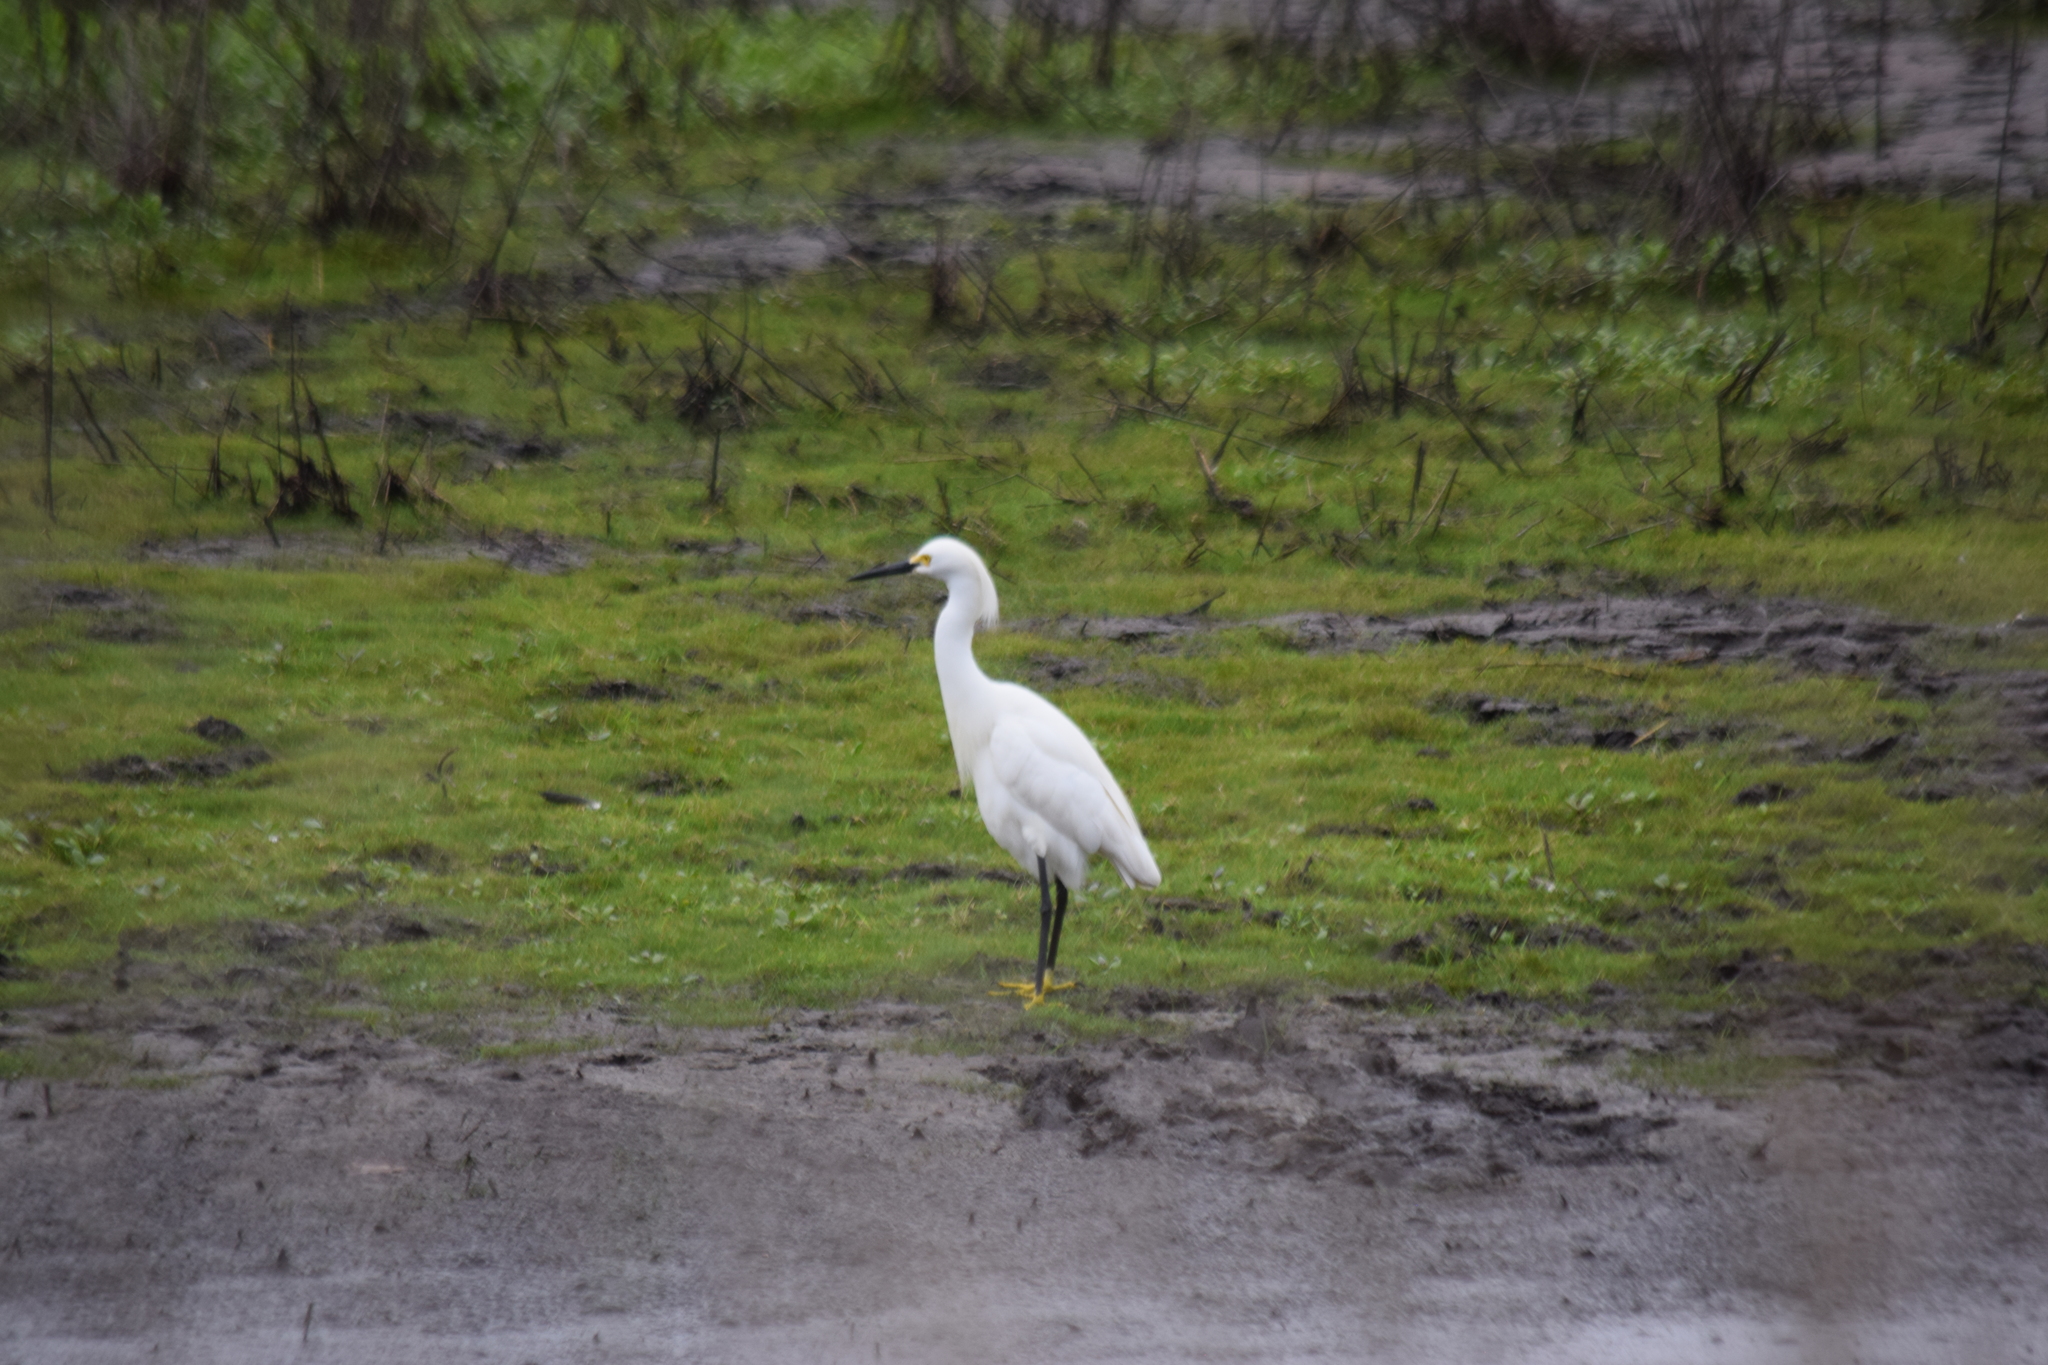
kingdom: Animalia
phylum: Chordata
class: Aves
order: Pelecaniformes
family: Ardeidae
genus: Egretta
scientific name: Egretta thula
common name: Snowy egret
